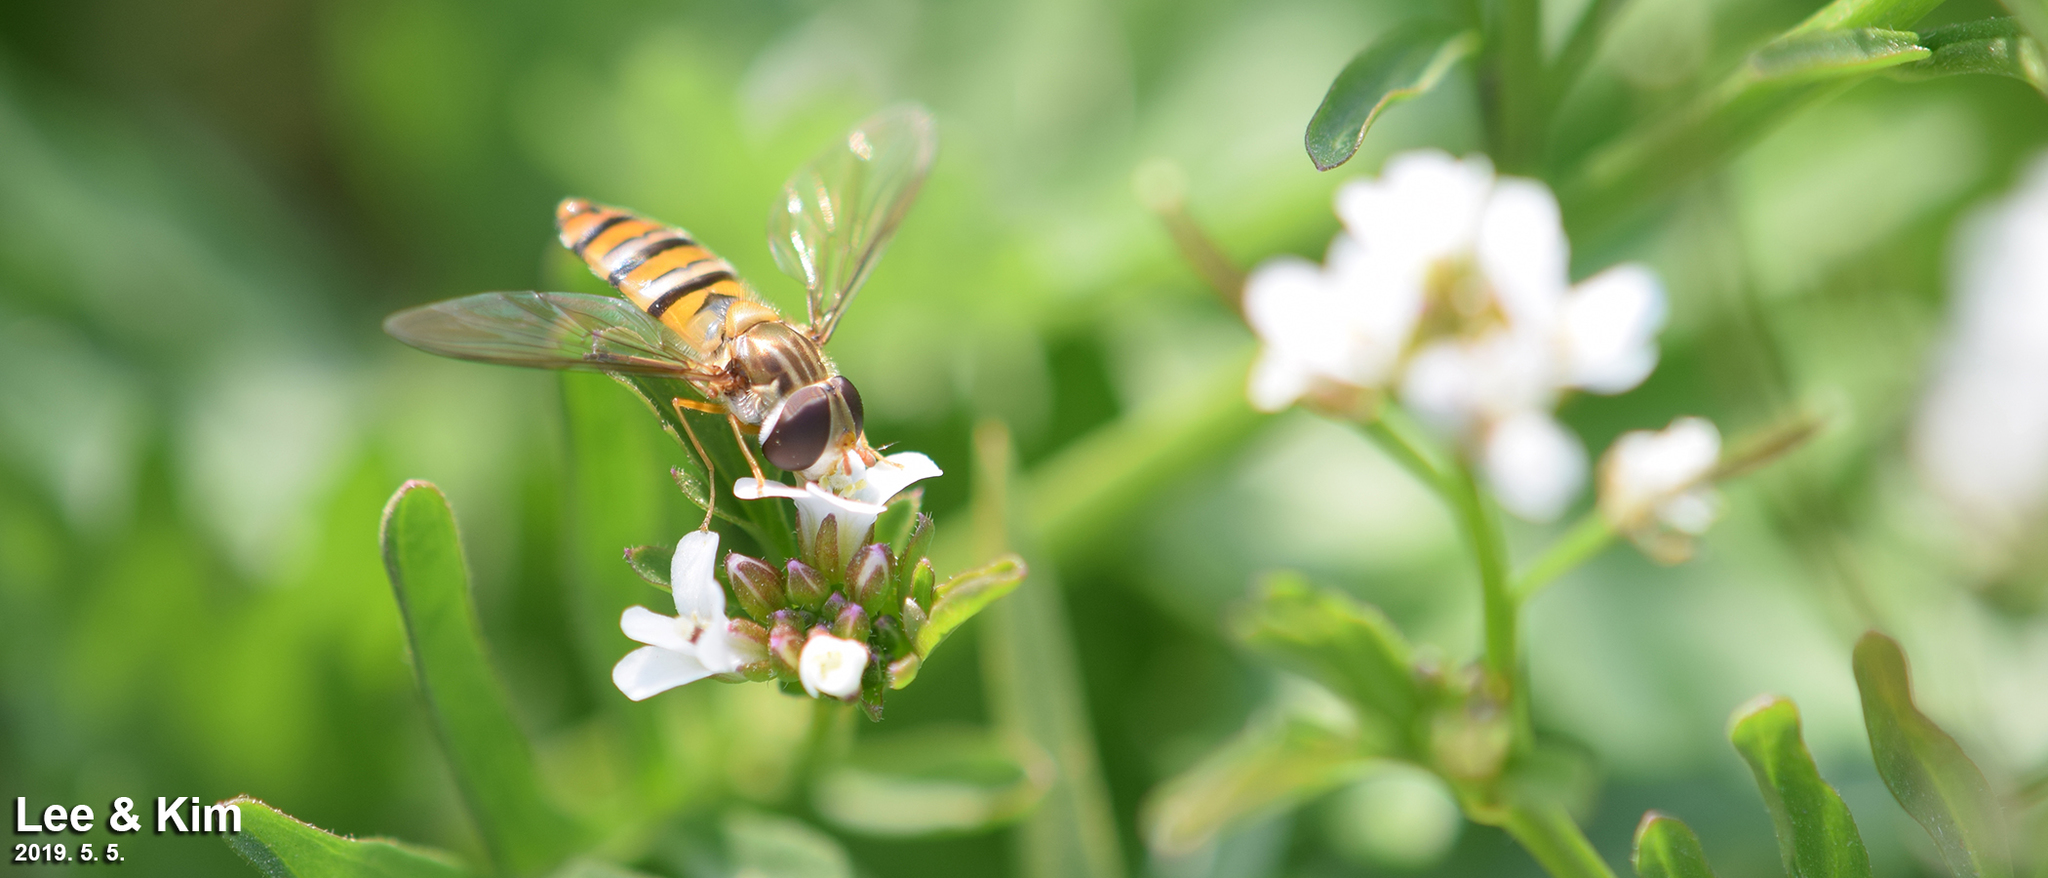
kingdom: Animalia
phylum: Arthropoda
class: Insecta
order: Diptera
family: Syrphidae
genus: Episyrphus
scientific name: Episyrphus balteatus
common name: Marmalade hoverfly
